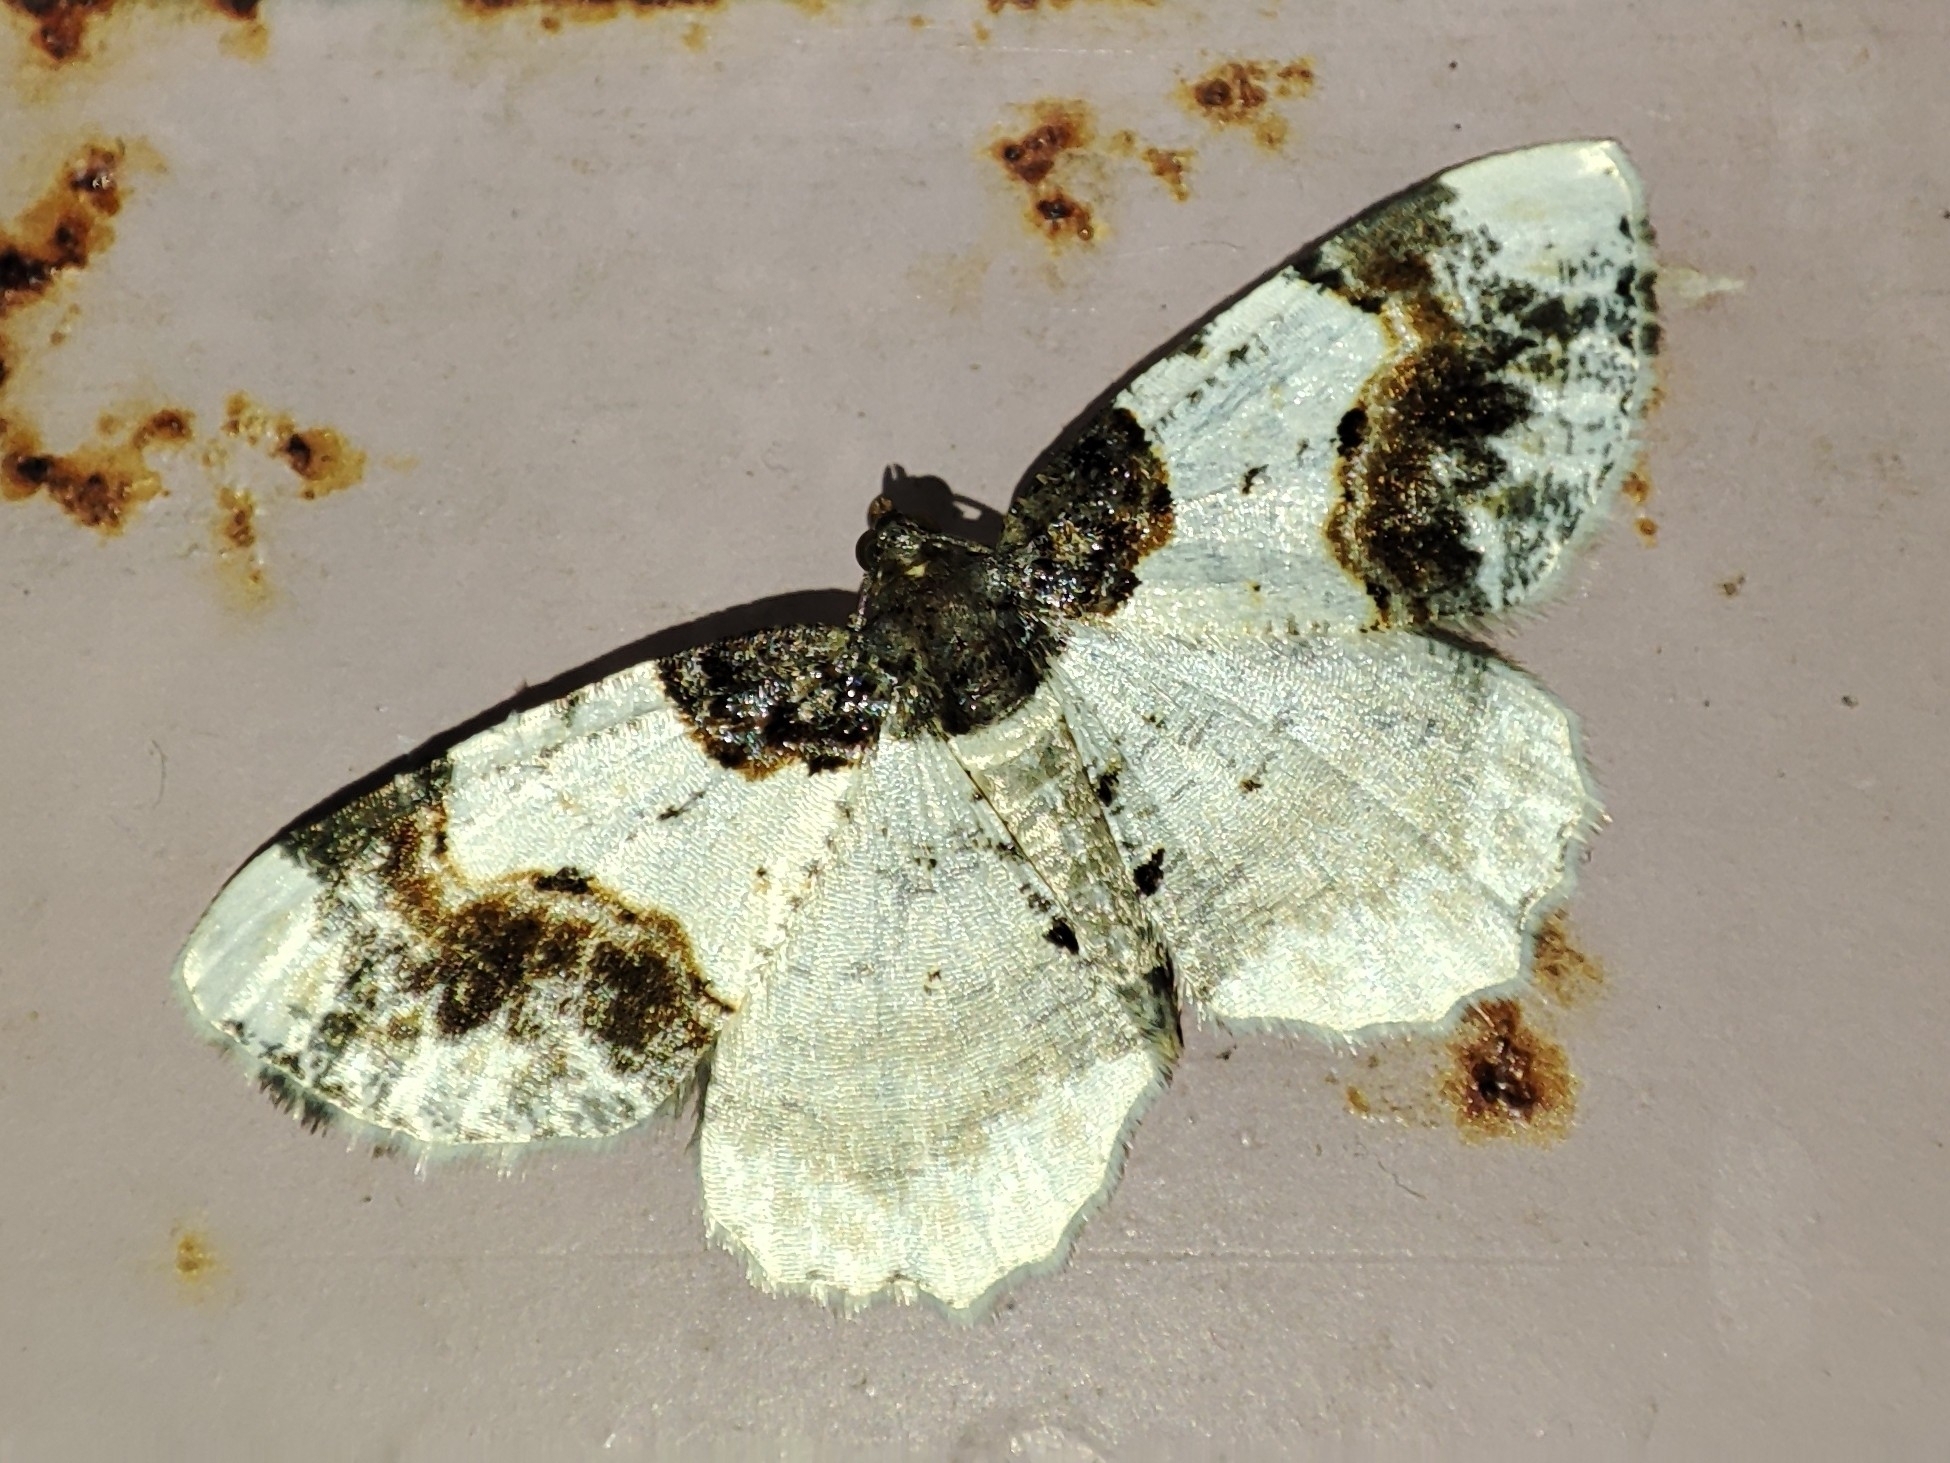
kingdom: Animalia
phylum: Arthropoda
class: Insecta
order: Lepidoptera
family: Geometridae
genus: Ligdia
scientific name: Ligdia adustata
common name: Scorched carpet
